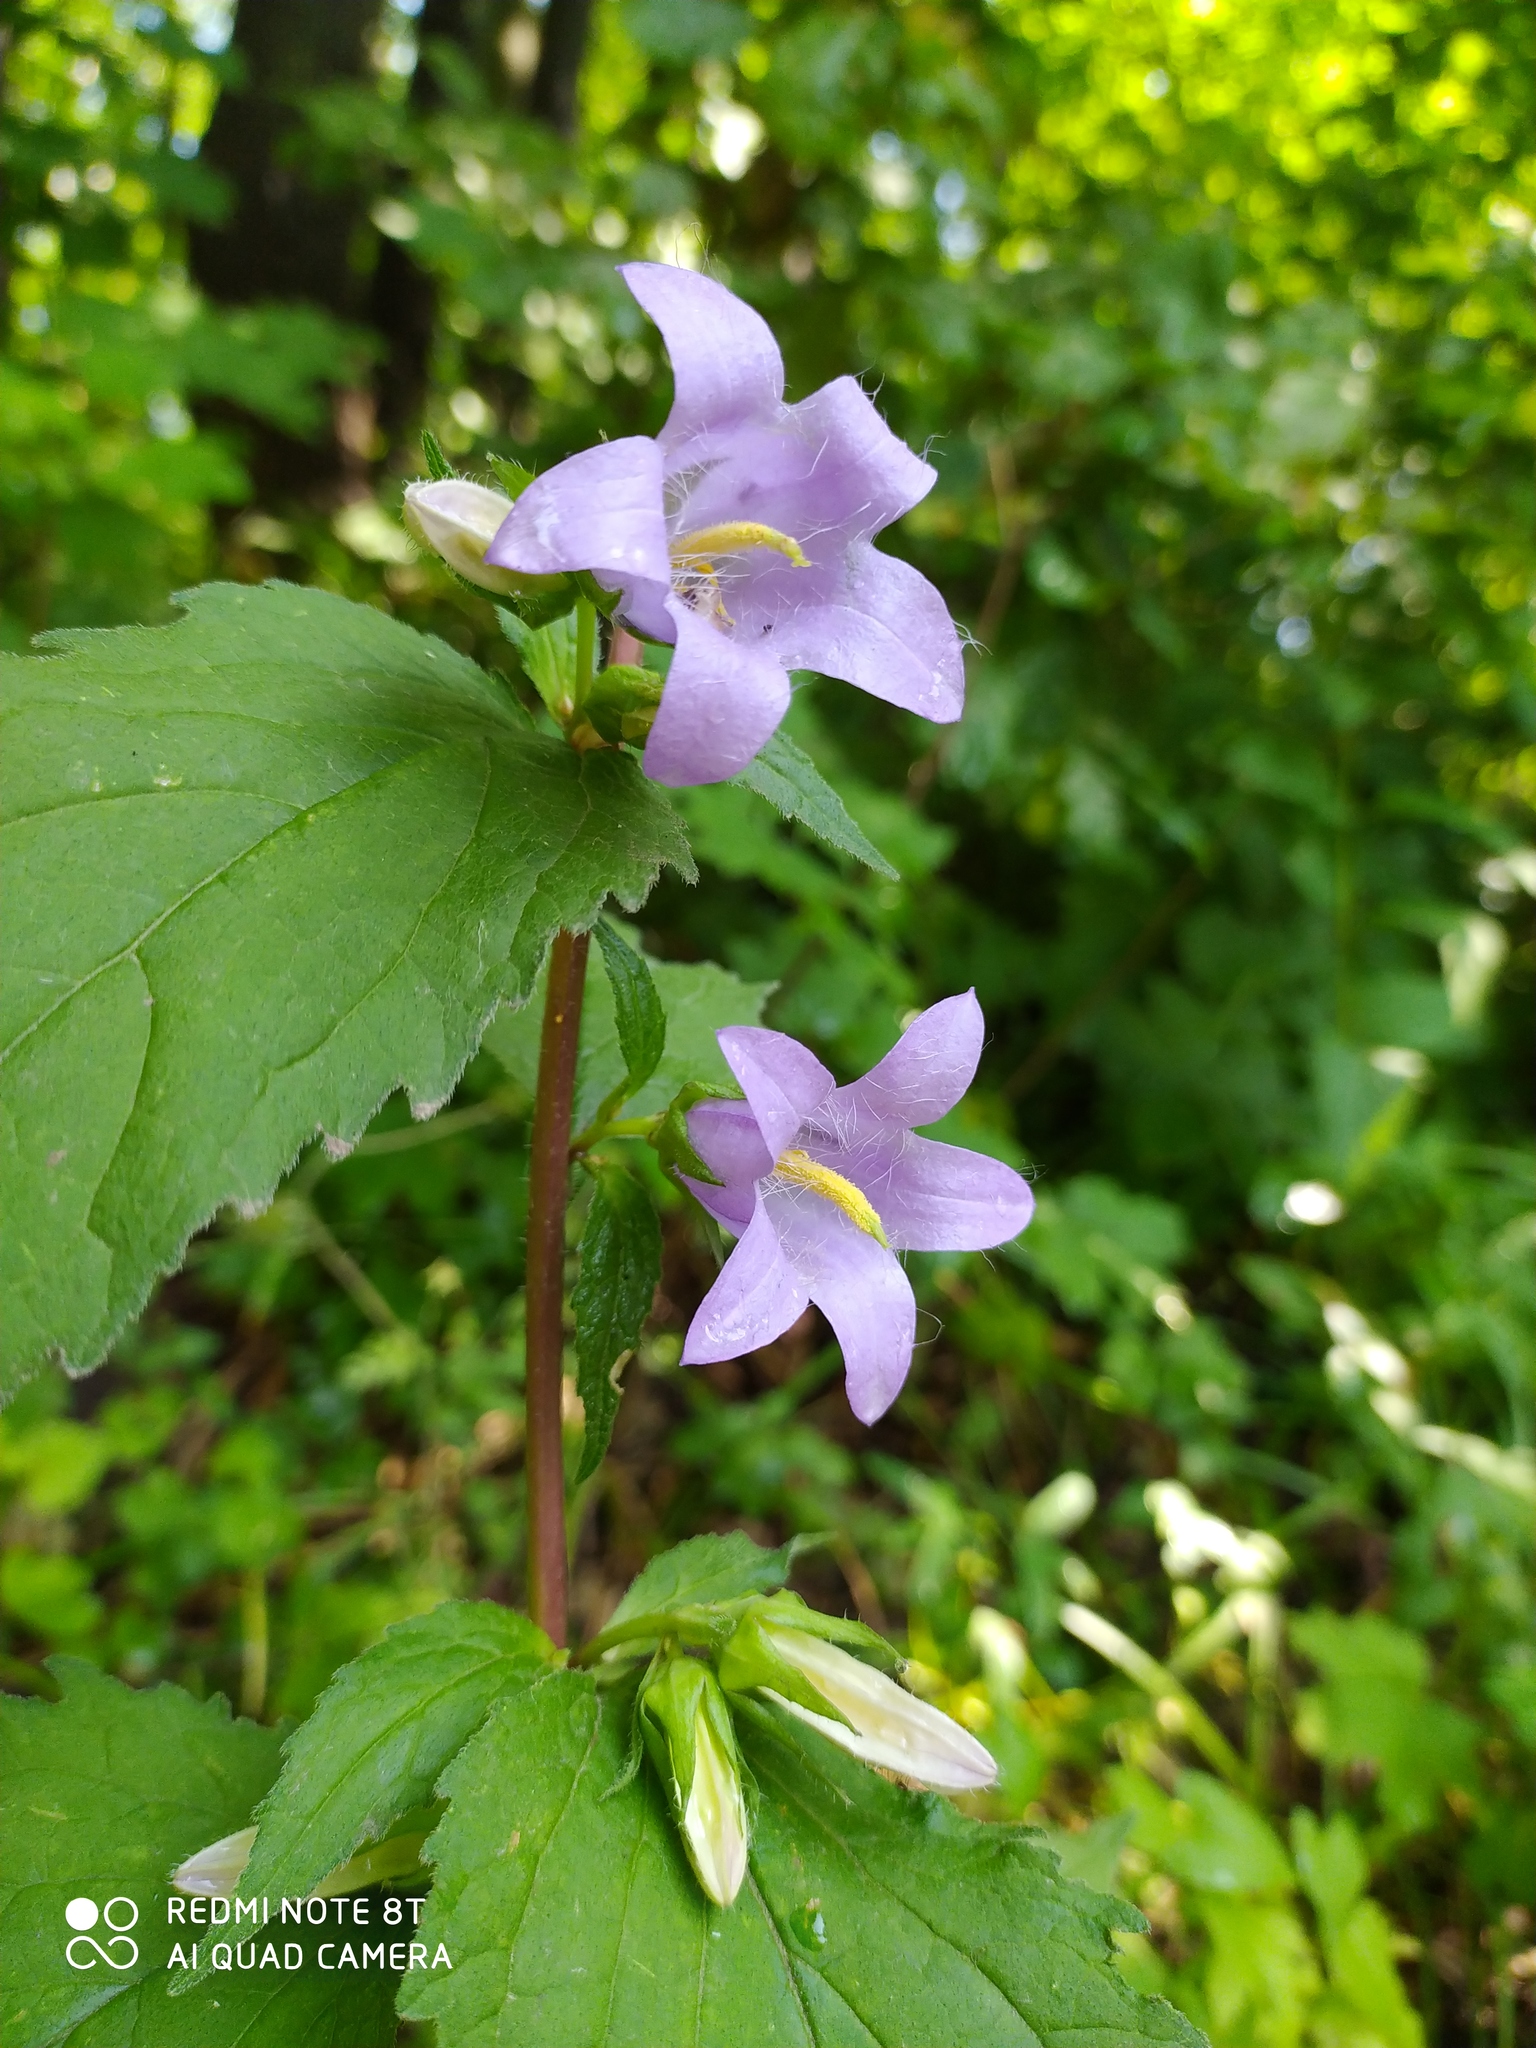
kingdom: Plantae
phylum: Tracheophyta
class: Magnoliopsida
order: Asterales
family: Campanulaceae
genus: Campanula
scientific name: Campanula trachelium
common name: Nettle-leaved bellflower
